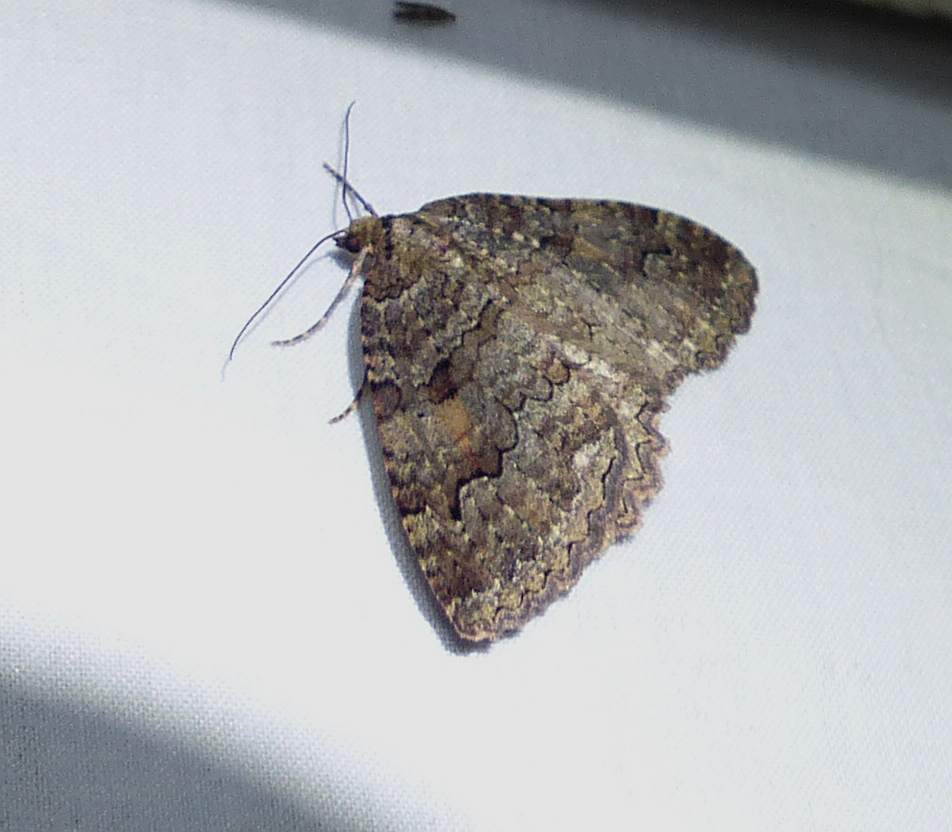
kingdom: Animalia
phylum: Arthropoda
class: Insecta
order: Lepidoptera
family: Geometridae
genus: Triphosa
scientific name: Triphosa haesitata
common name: Tissue moth
